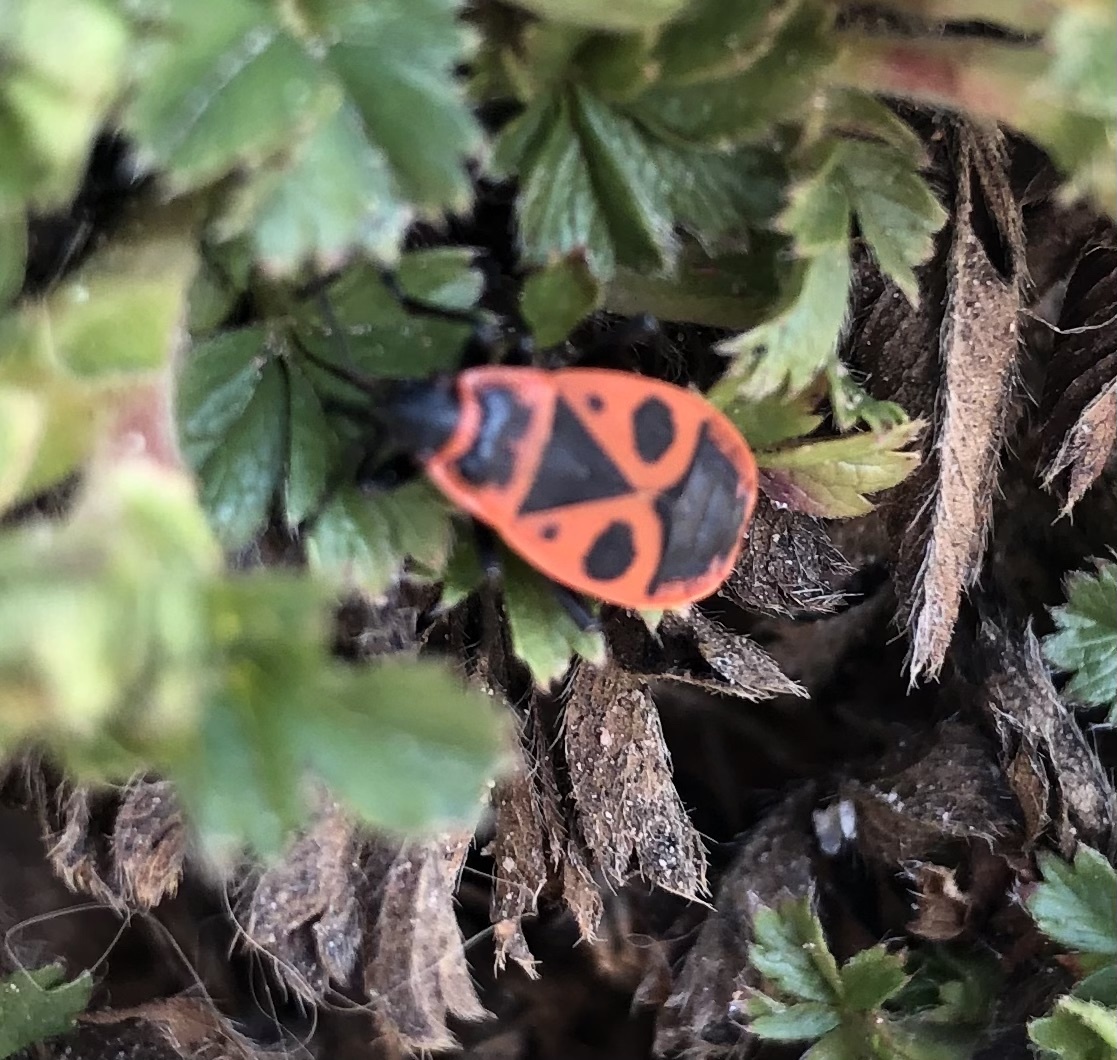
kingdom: Animalia
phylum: Arthropoda
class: Insecta
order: Hemiptera
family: Pyrrhocoridae
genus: Pyrrhocoris
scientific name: Pyrrhocoris apterus
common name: Firebug
